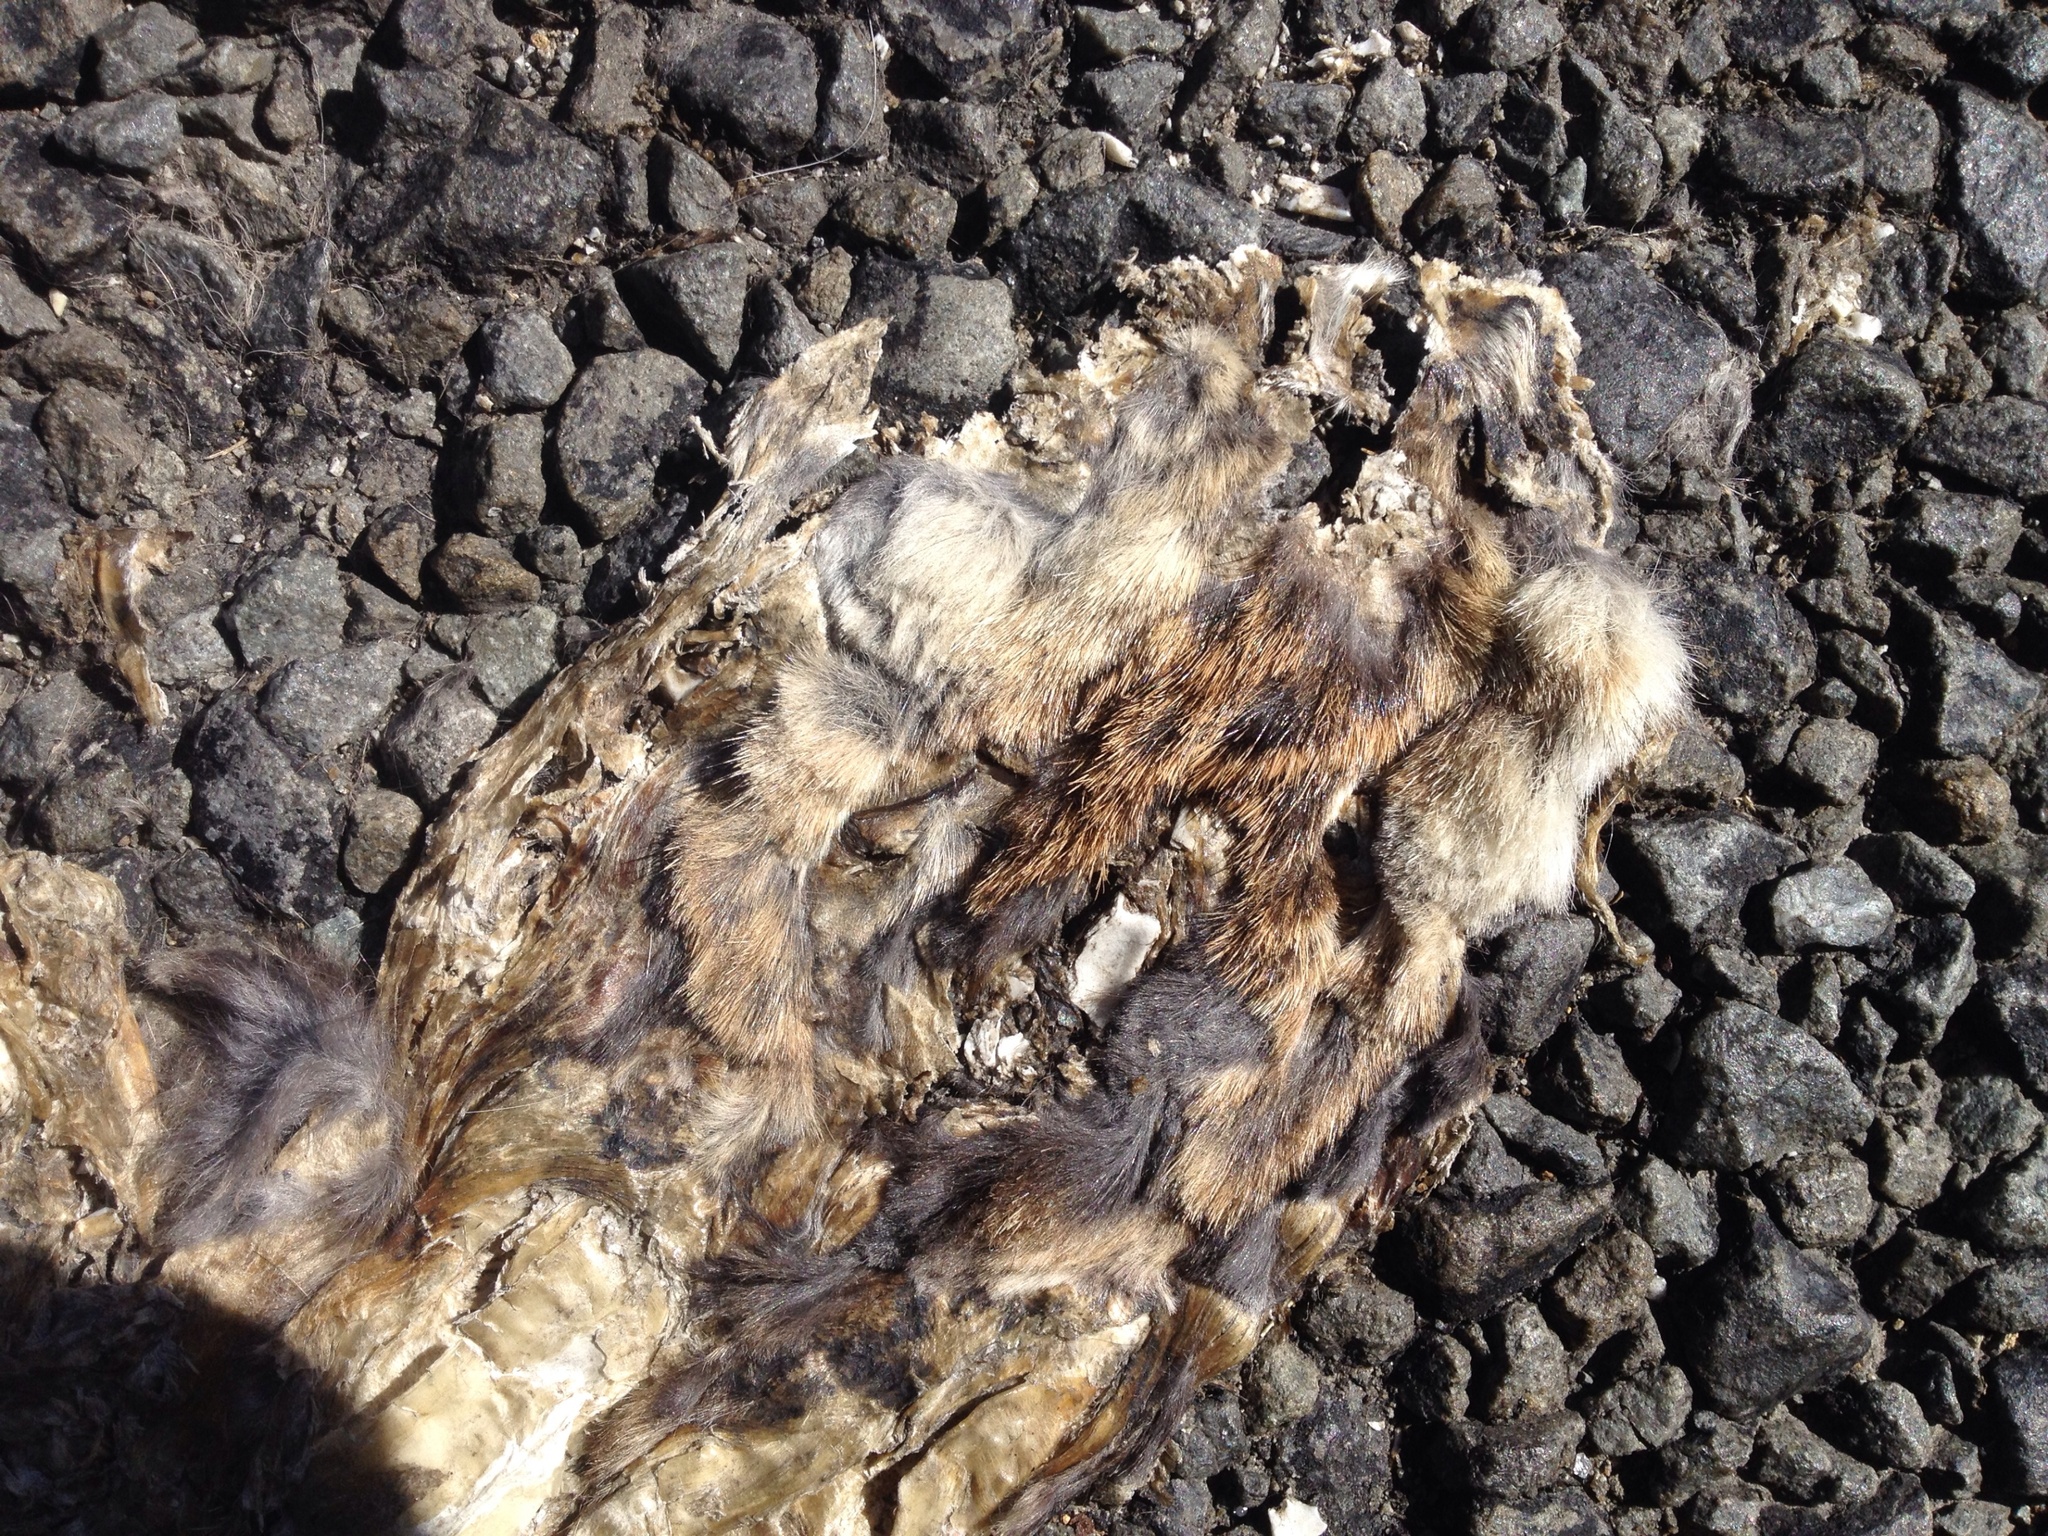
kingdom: Animalia
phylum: Chordata
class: Mammalia
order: Carnivora
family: Felidae
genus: Felis
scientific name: Felis catus
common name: Domestic cat
